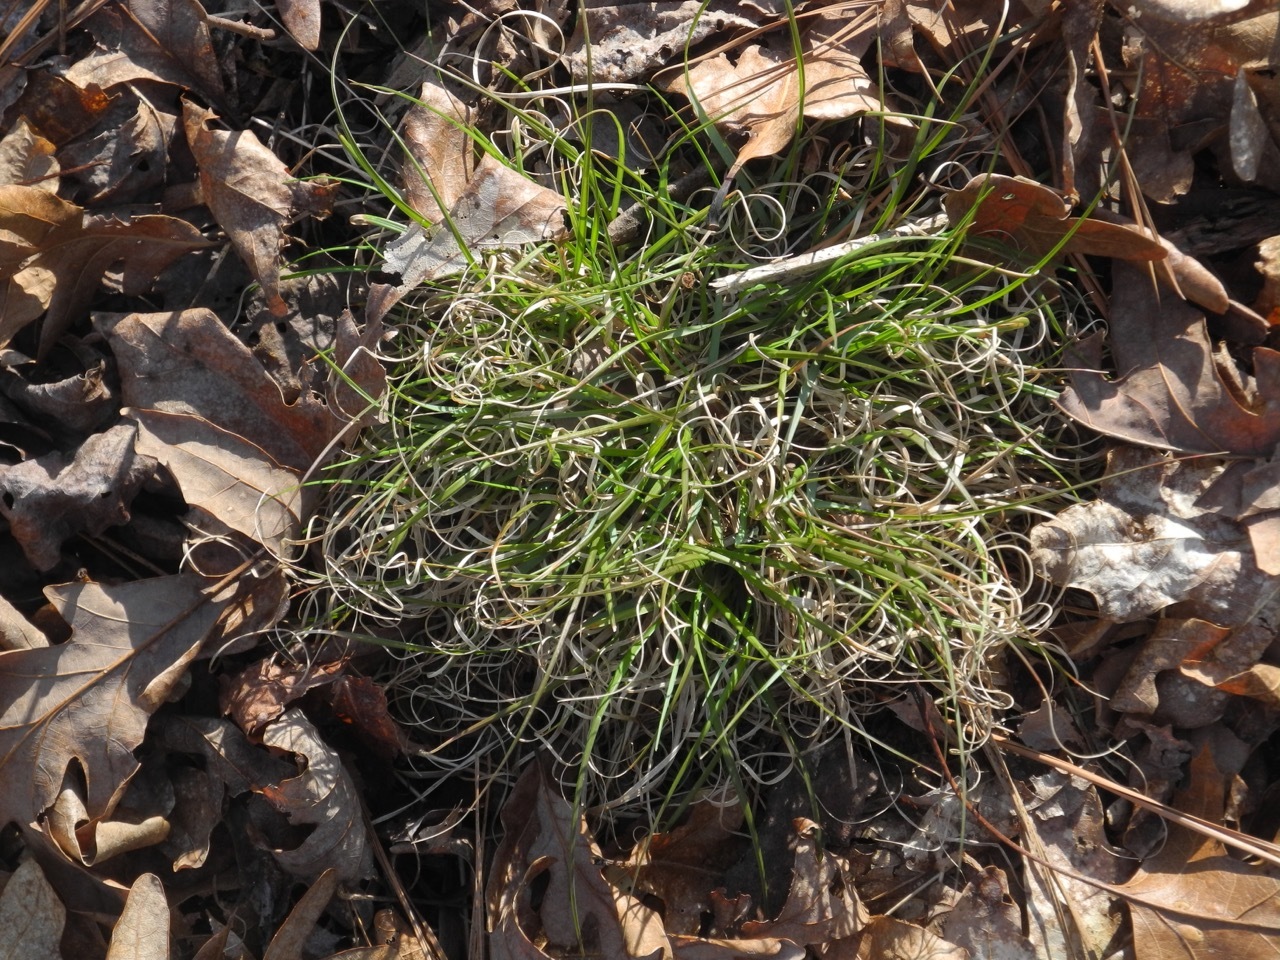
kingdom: Plantae
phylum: Tracheophyta
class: Liliopsida
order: Poales
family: Poaceae
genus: Danthonia
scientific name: Danthonia spicata
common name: Common wild oatgrass
